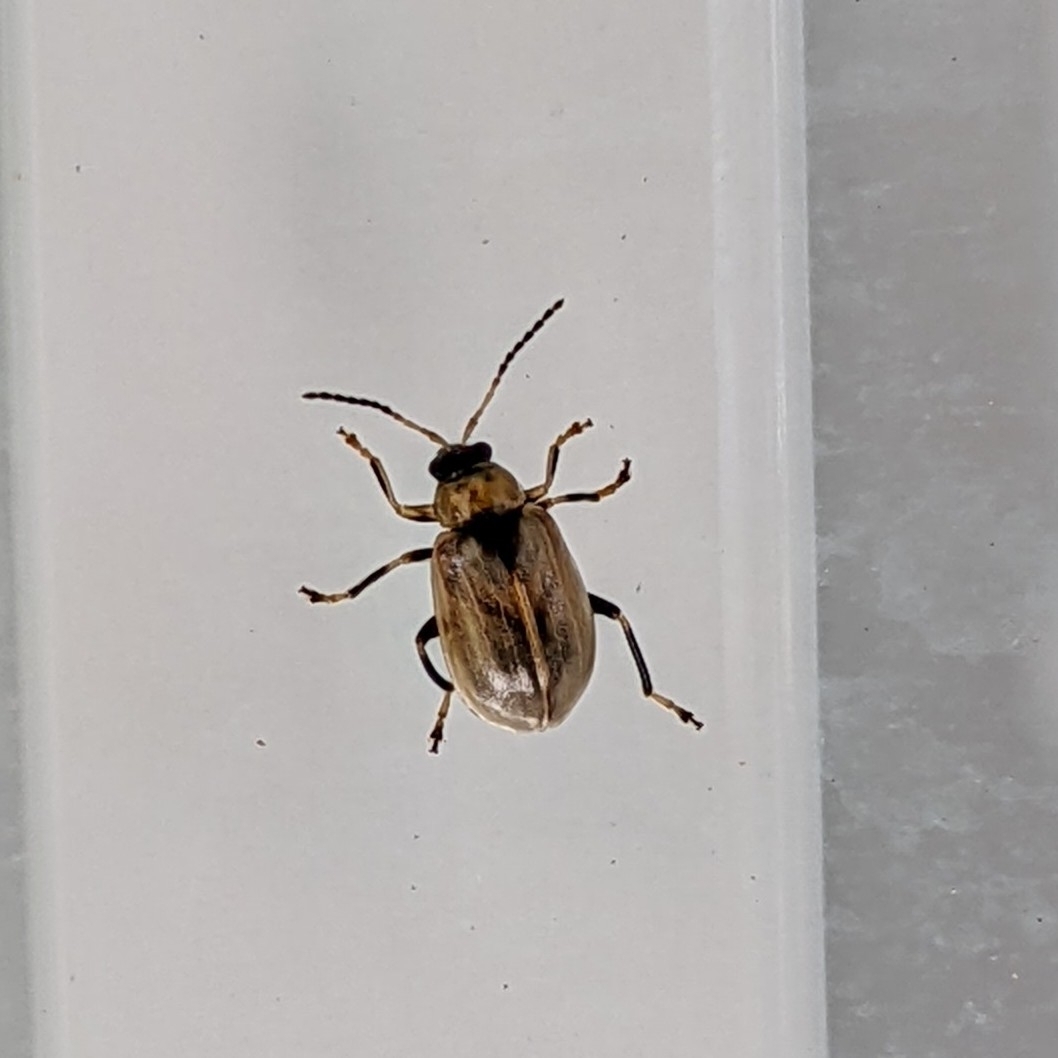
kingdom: Animalia
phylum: Arthropoda
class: Insecta
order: Coleoptera
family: Chrysomelidae
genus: Cerotoma
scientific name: Cerotoma trifurcata
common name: Bean leaf beetle
